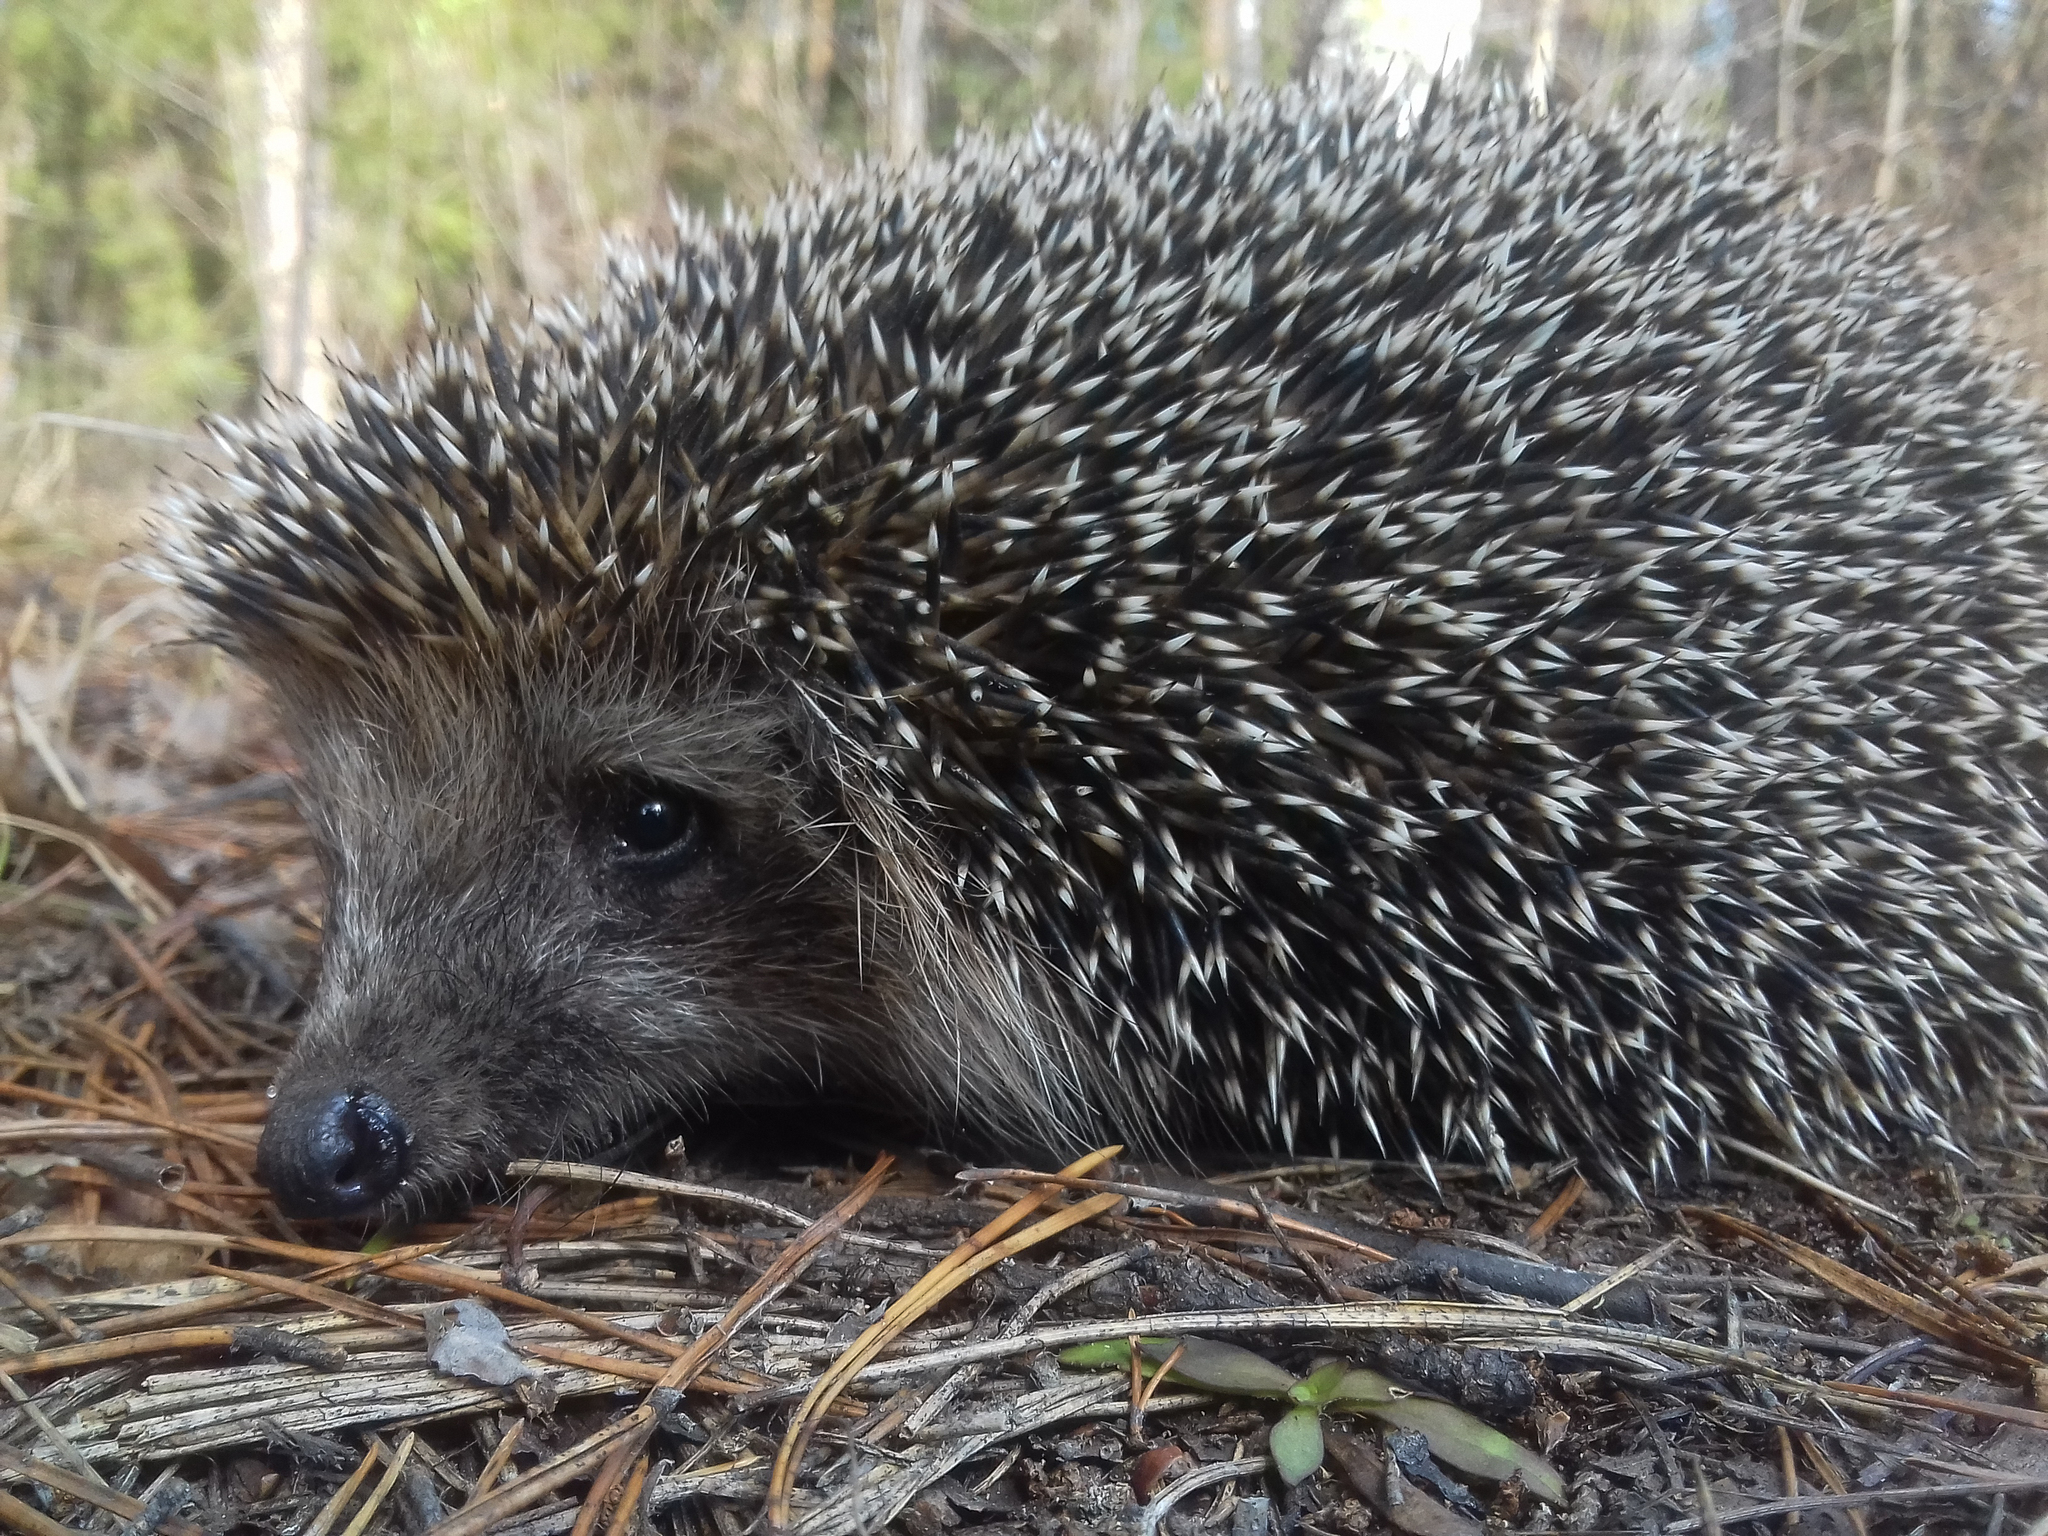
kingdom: Animalia
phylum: Chordata
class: Mammalia
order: Erinaceomorpha
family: Erinaceidae
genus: Erinaceus
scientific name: Erinaceus roumanicus
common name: Northern white-breasted hedgehog
